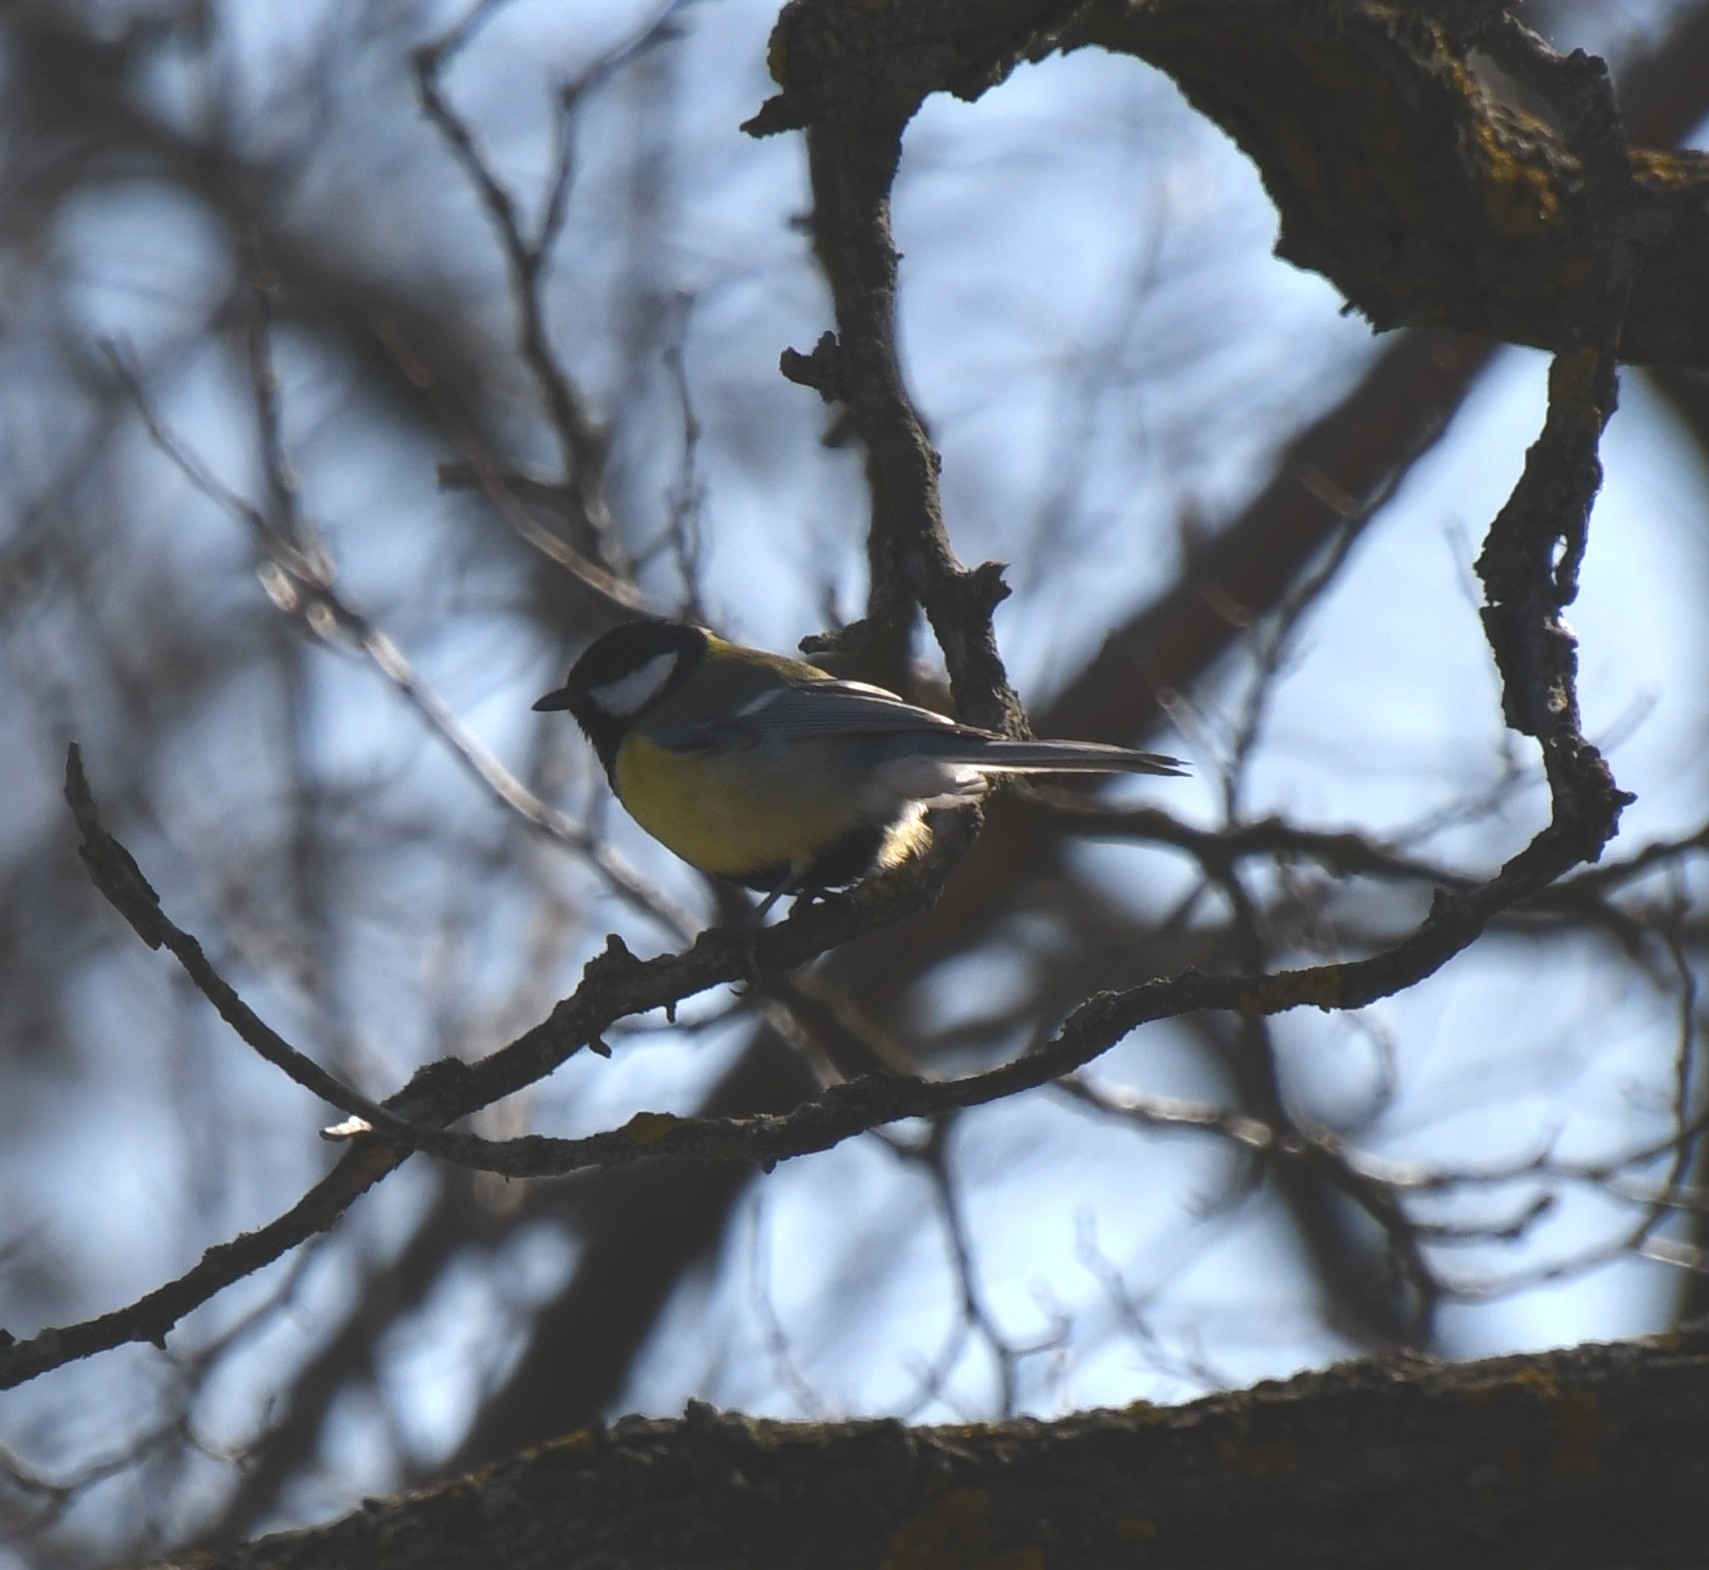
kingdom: Animalia
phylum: Chordata
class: Aves
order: Passeriformes
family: Paridae
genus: Parus
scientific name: Parus major
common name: Great tit
